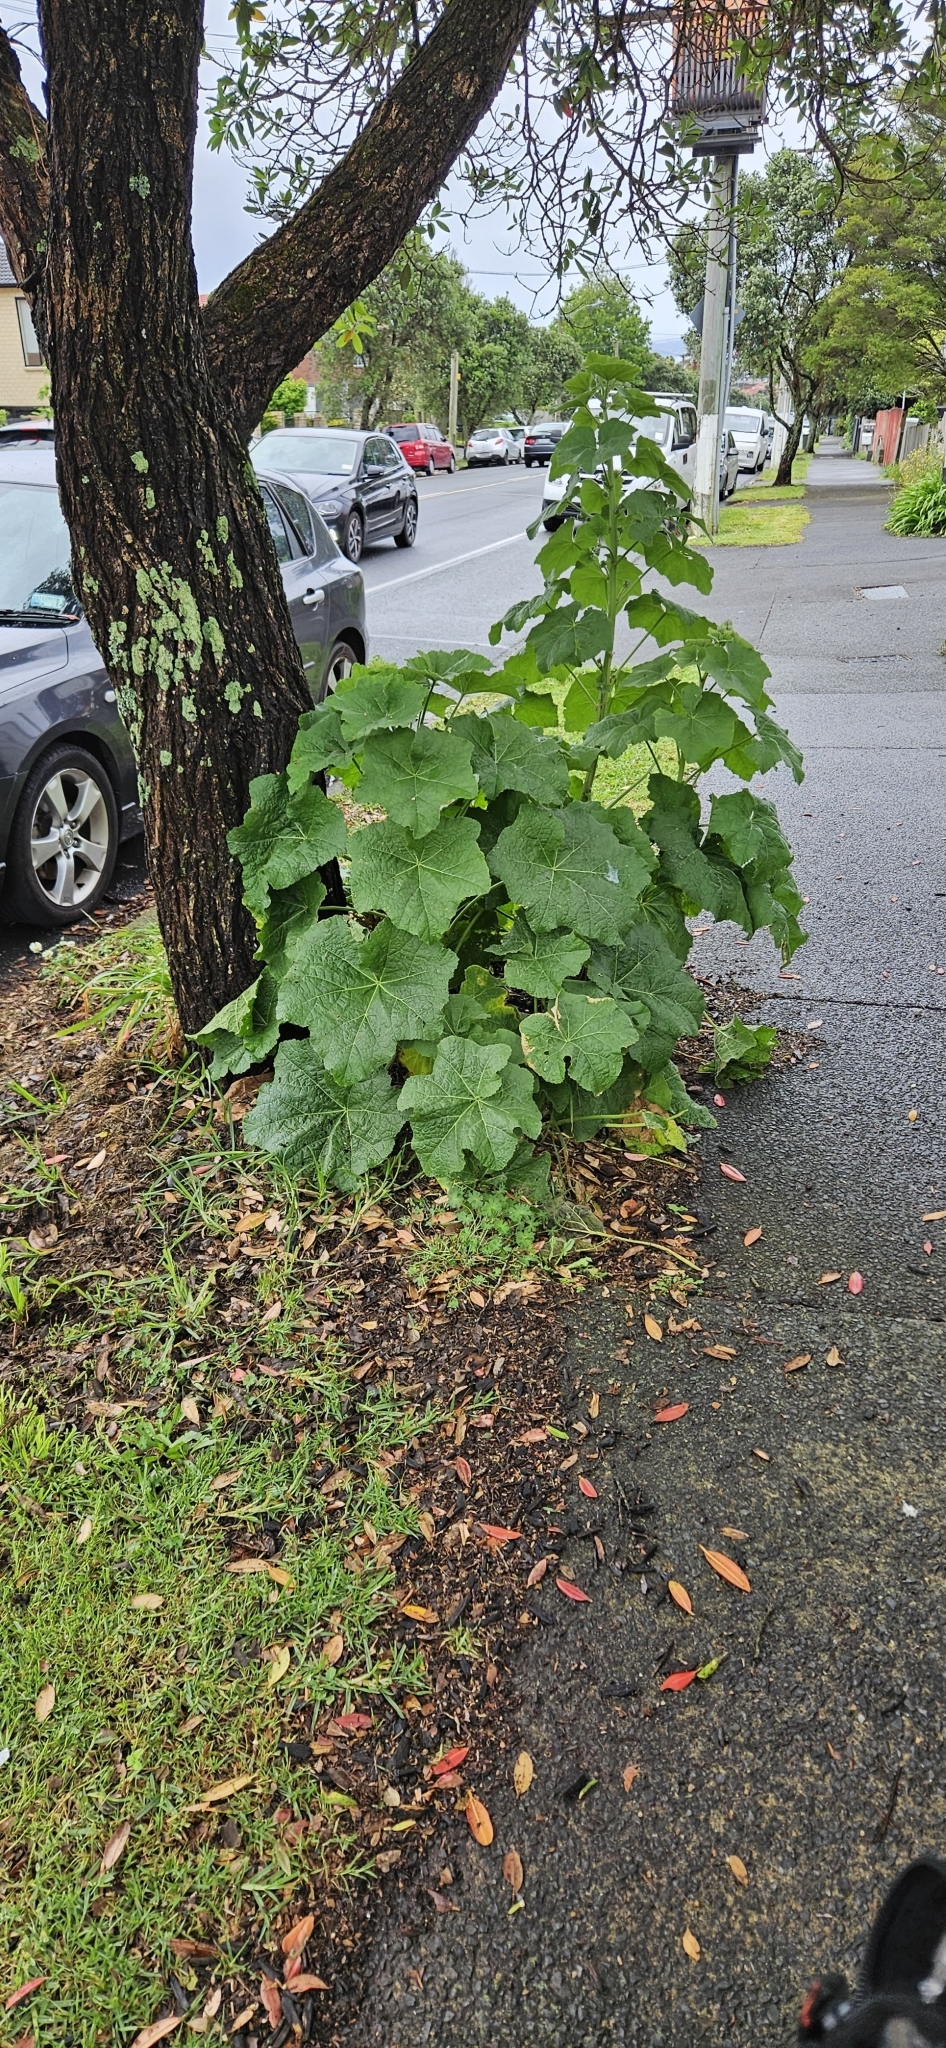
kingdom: Plantae
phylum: Tracheophyta
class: Magnoliopsida
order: Malvales
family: Malvaceae
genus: Alcea
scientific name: Alcea rosea
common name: Hollyhock
